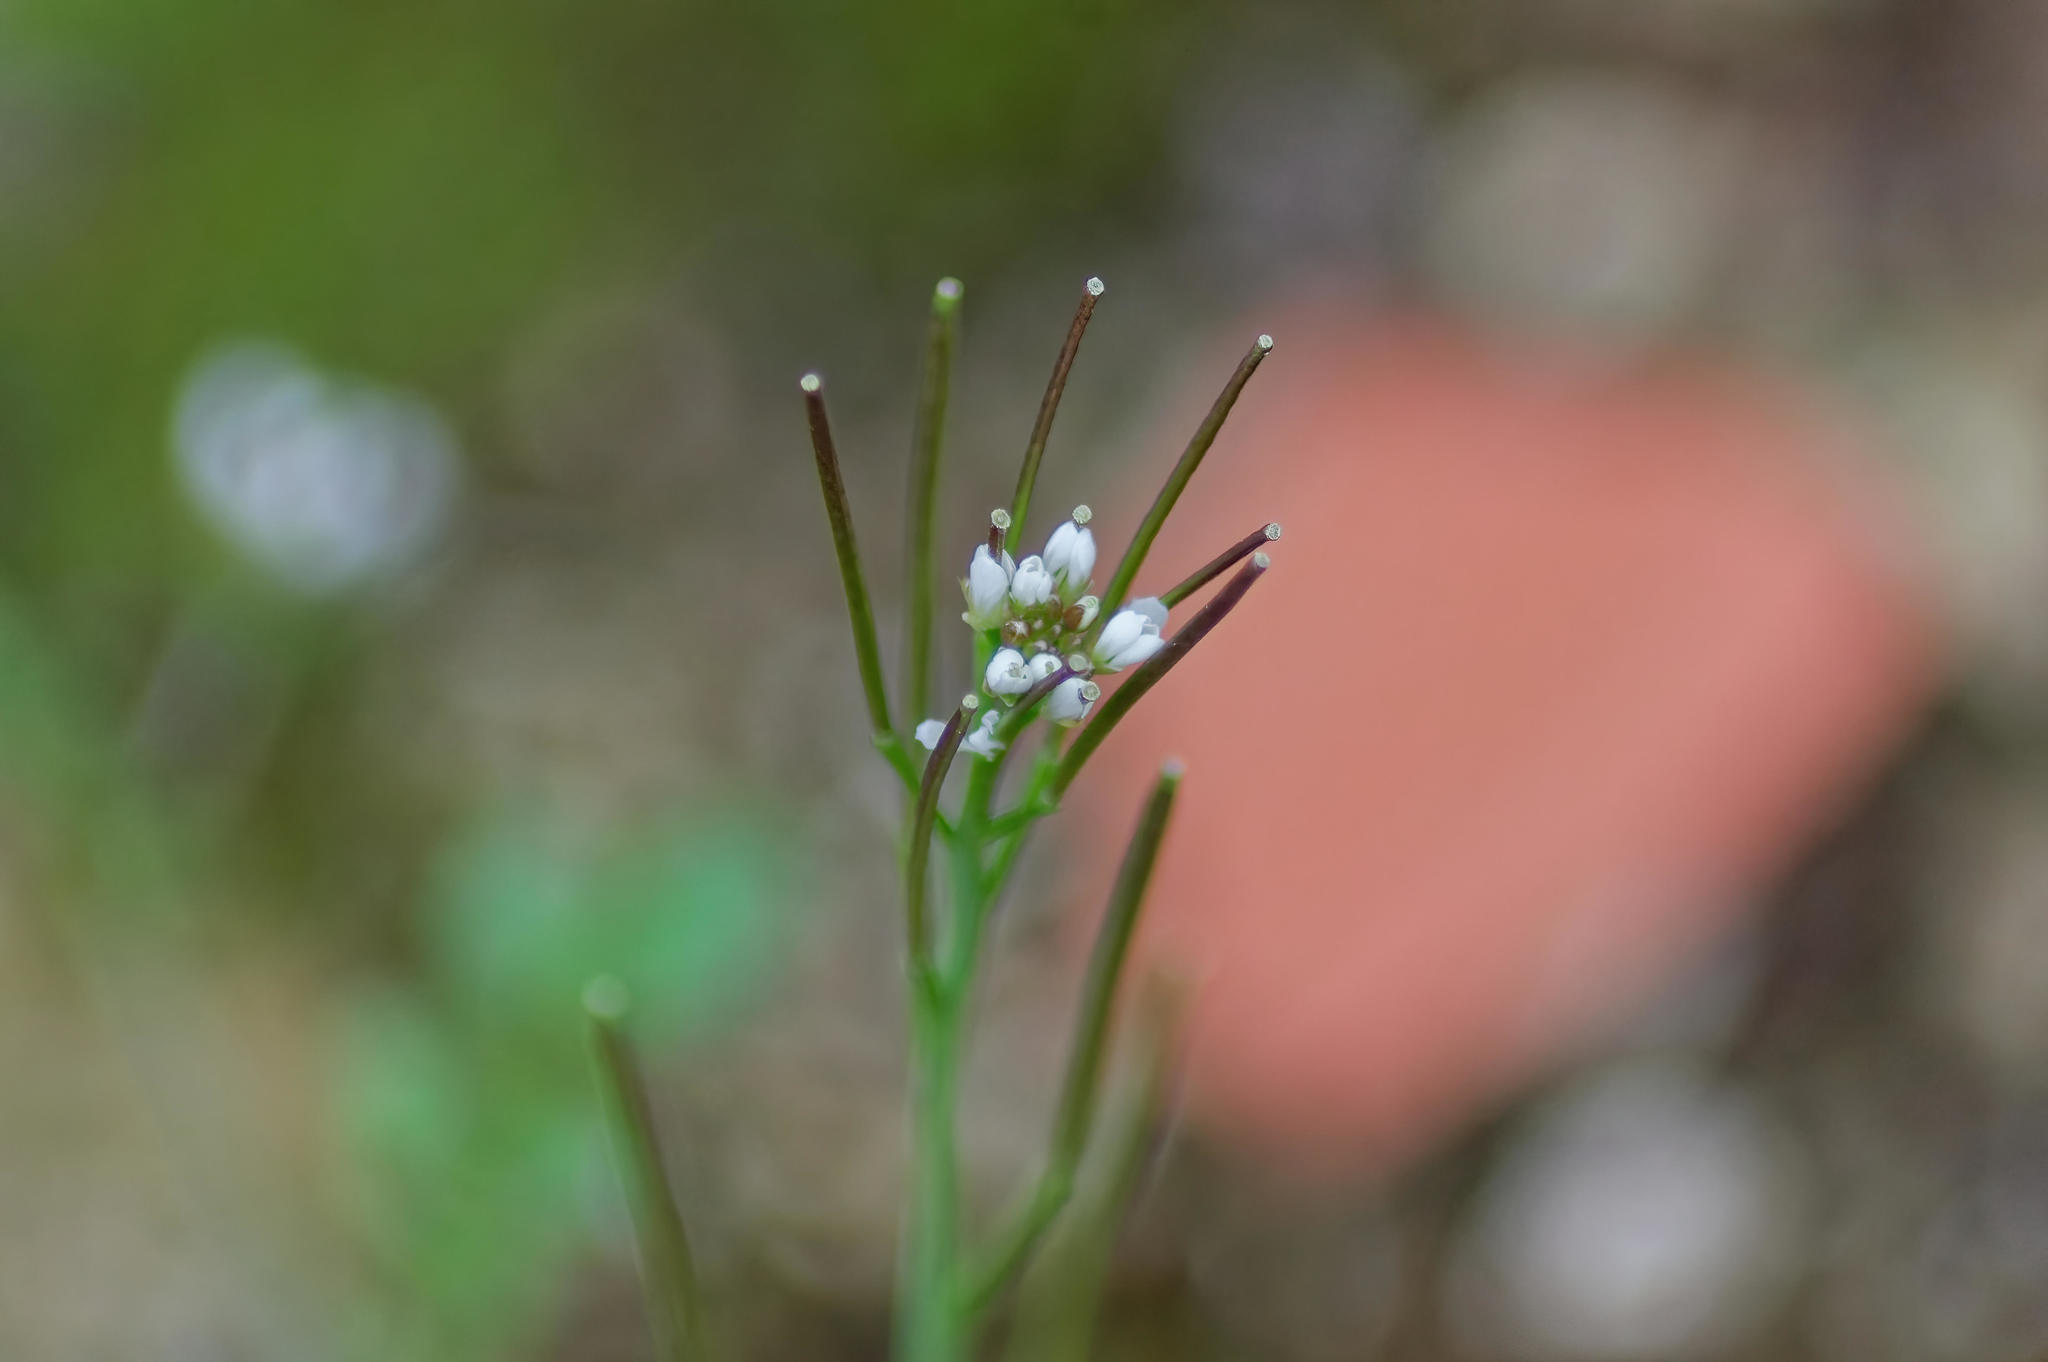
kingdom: Plantae
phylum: Tracheophyta
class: Magnoliopsida
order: Brassicales
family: Brassicaceae
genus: Cardamine
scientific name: Cardamine hirsuta
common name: Hairy bittercress
